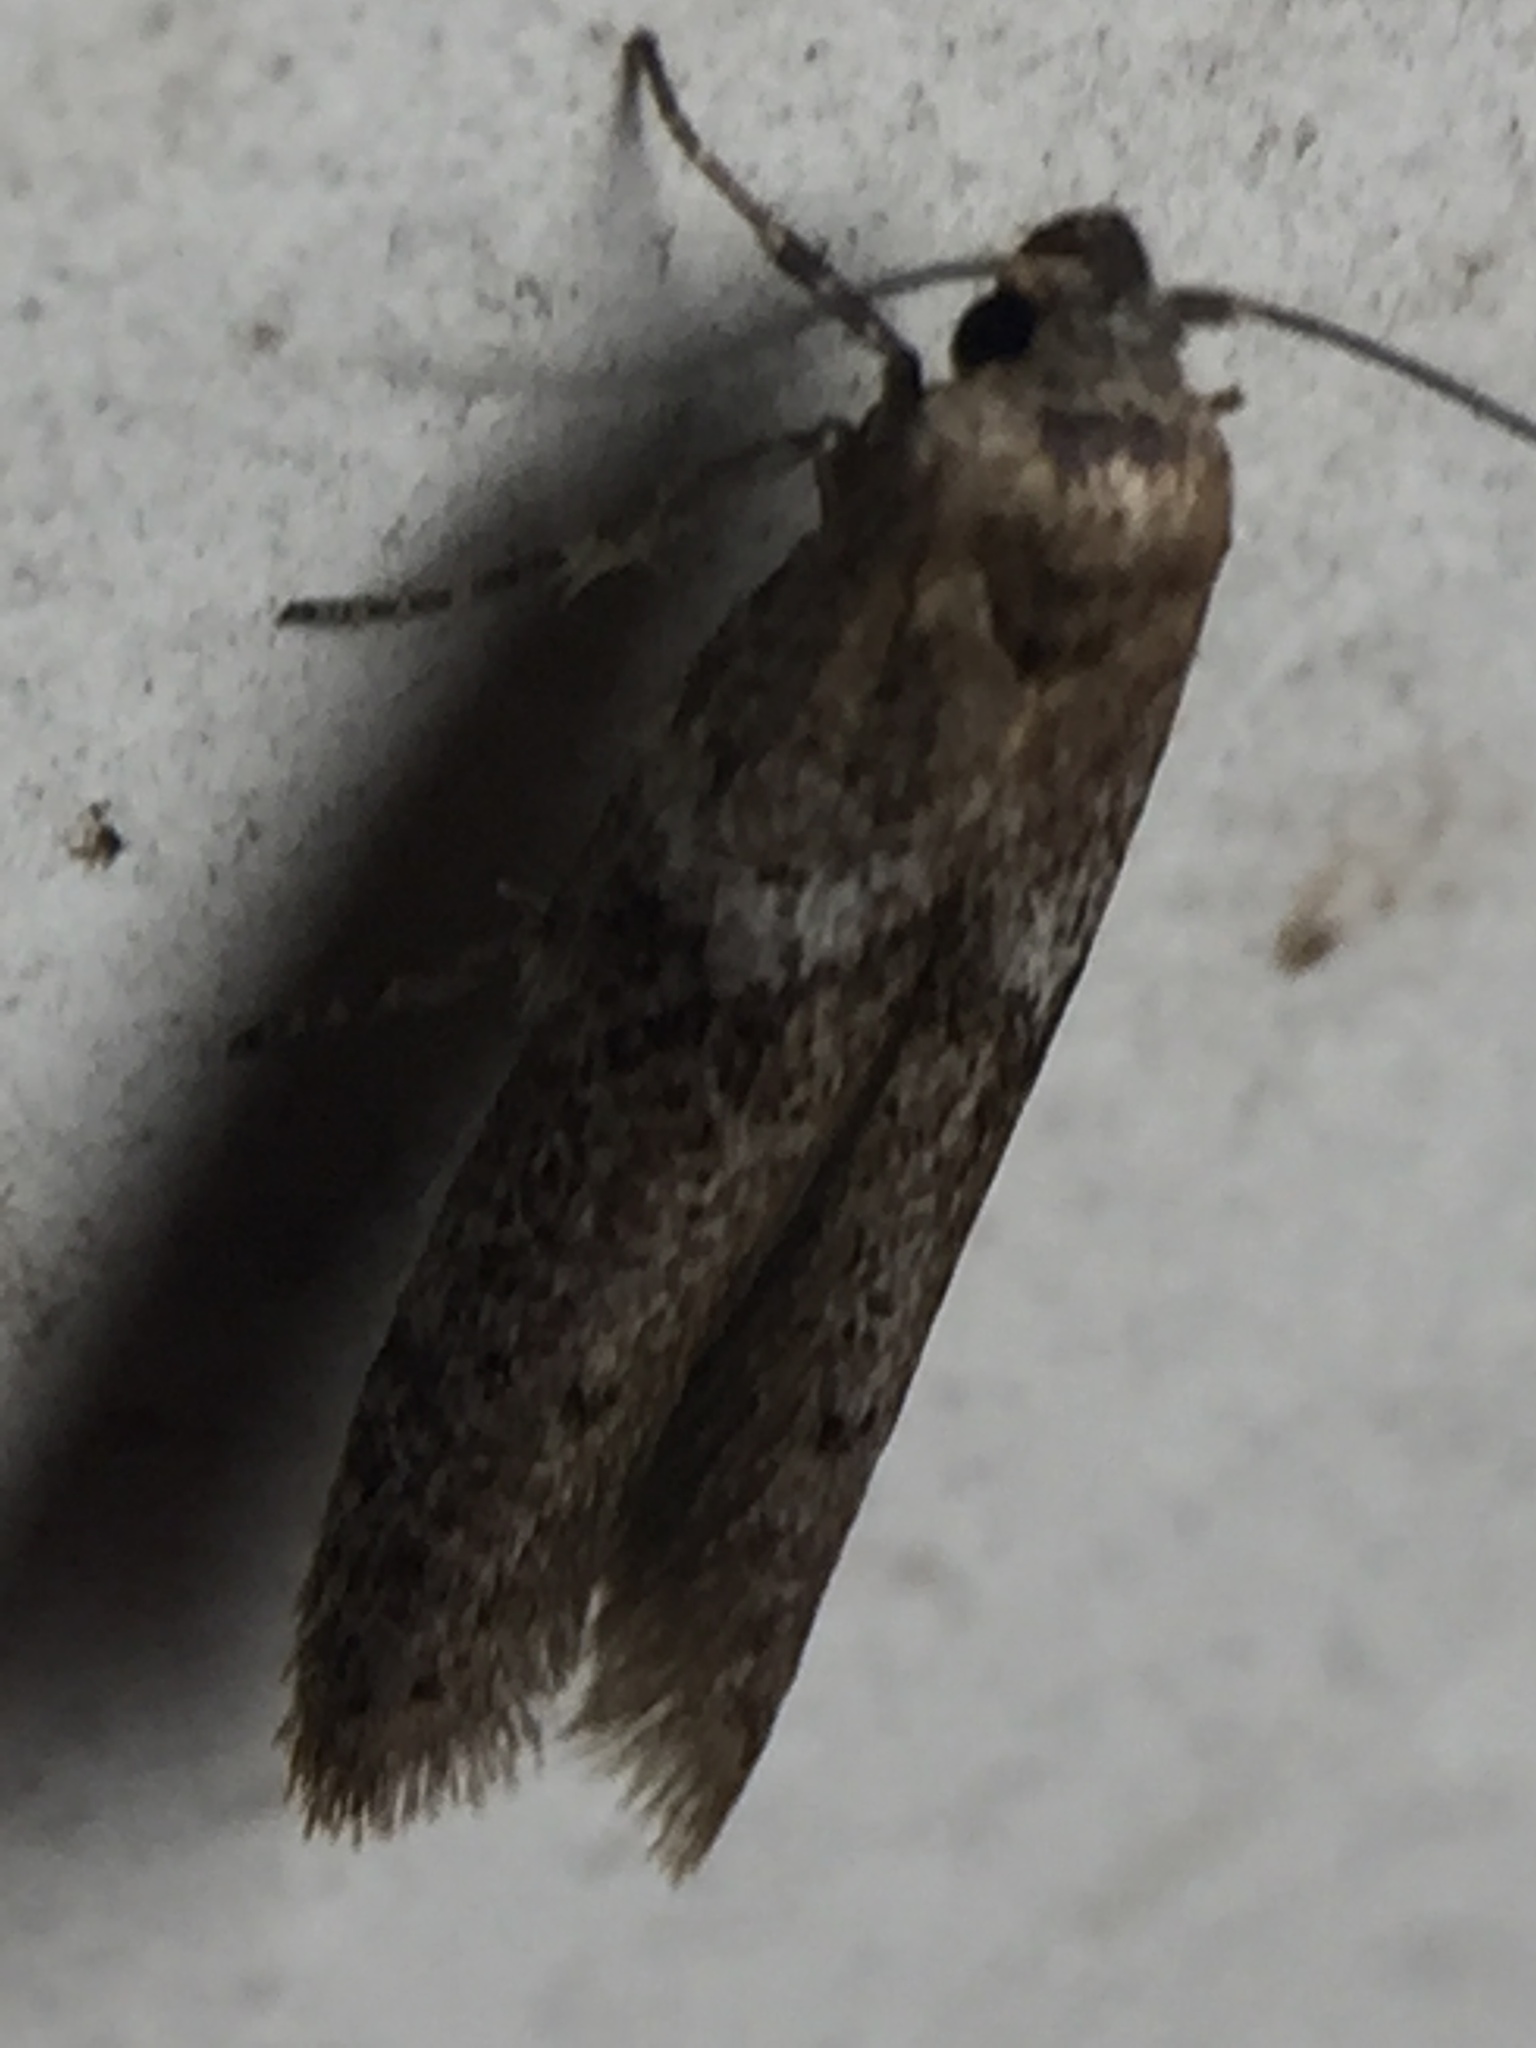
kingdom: Animalia
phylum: Arthropoda
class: Insecta
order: Lepidoptera
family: Blastobasidae
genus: Blastobasis
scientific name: Blastobasis tarda
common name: Blastobasid moth
